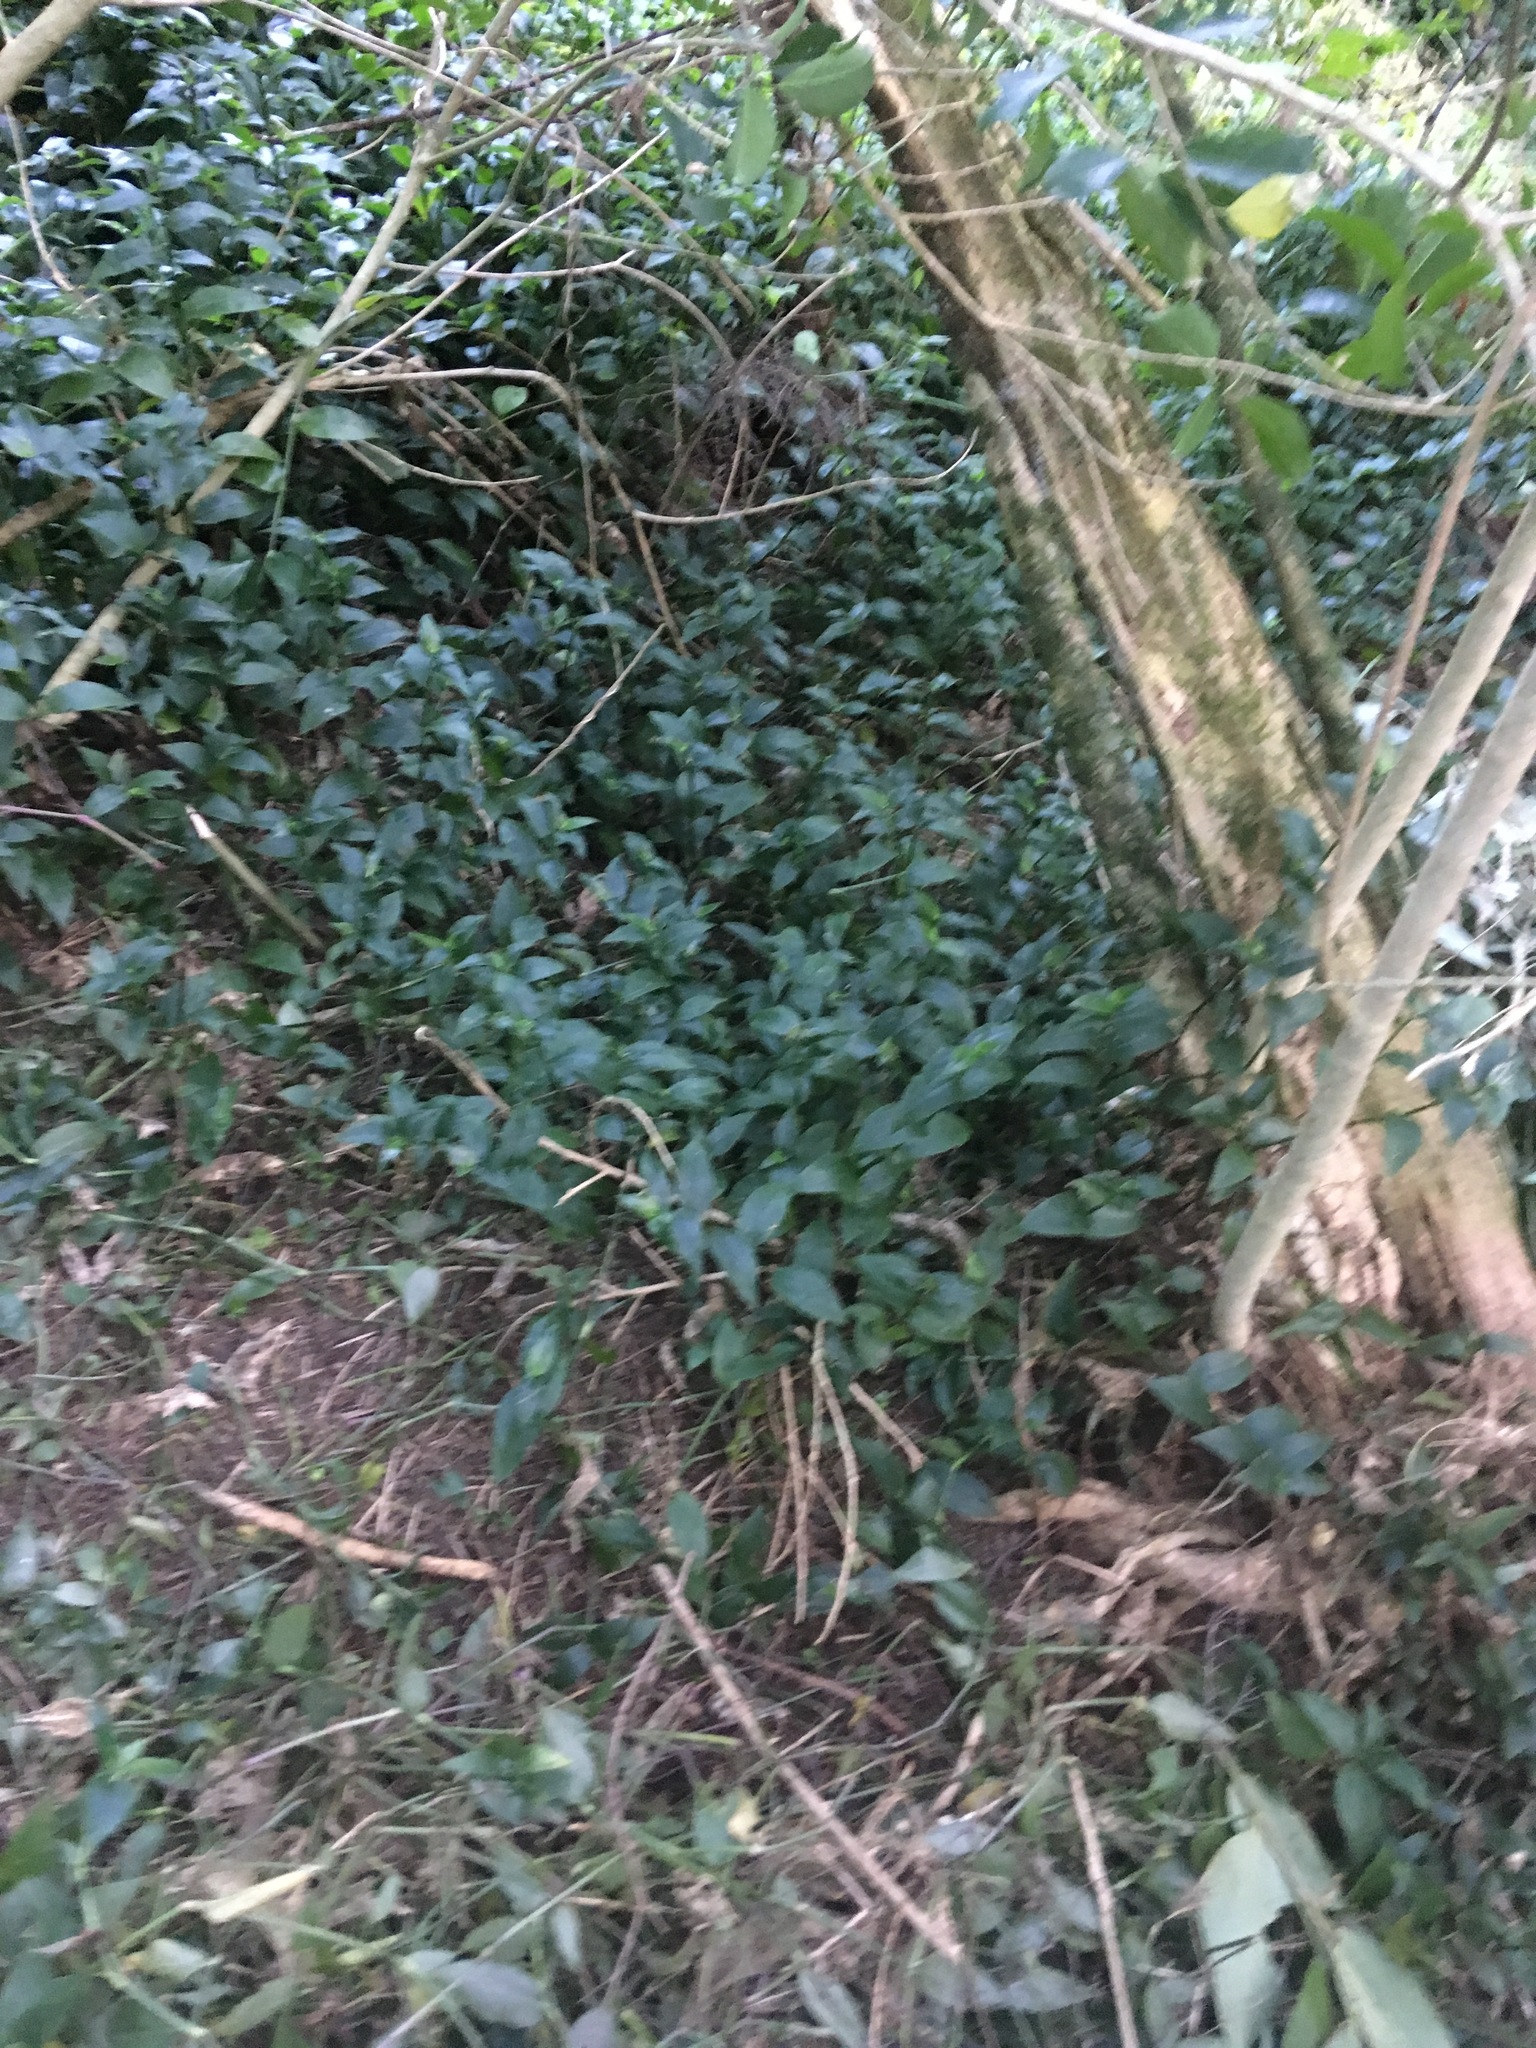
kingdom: Plantae
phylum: Tracheophyta
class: Liliopsida
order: Commelinales
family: Commelinaceae
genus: Tradescantia
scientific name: Tradescantia fluminensis
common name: Wandering-jew
